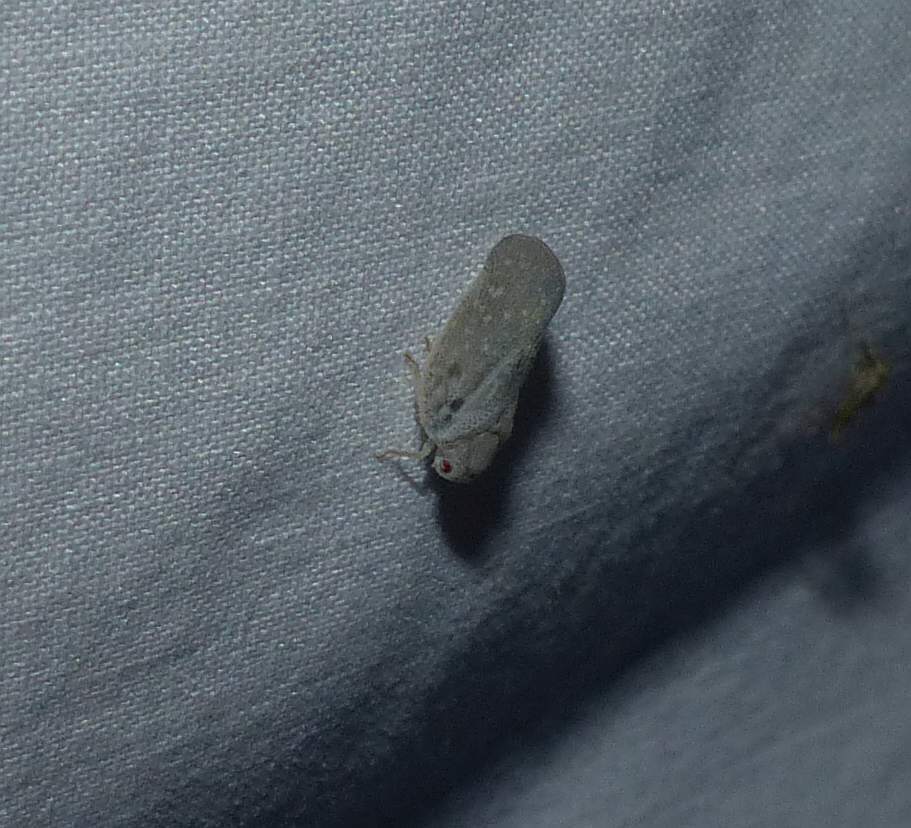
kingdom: Animalia
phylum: Arthropoda
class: Insecta
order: Hemiptera
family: Flatidae
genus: Metcalfa
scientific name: Metcalfa pruinosa
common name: Citrus flatid planthopper
